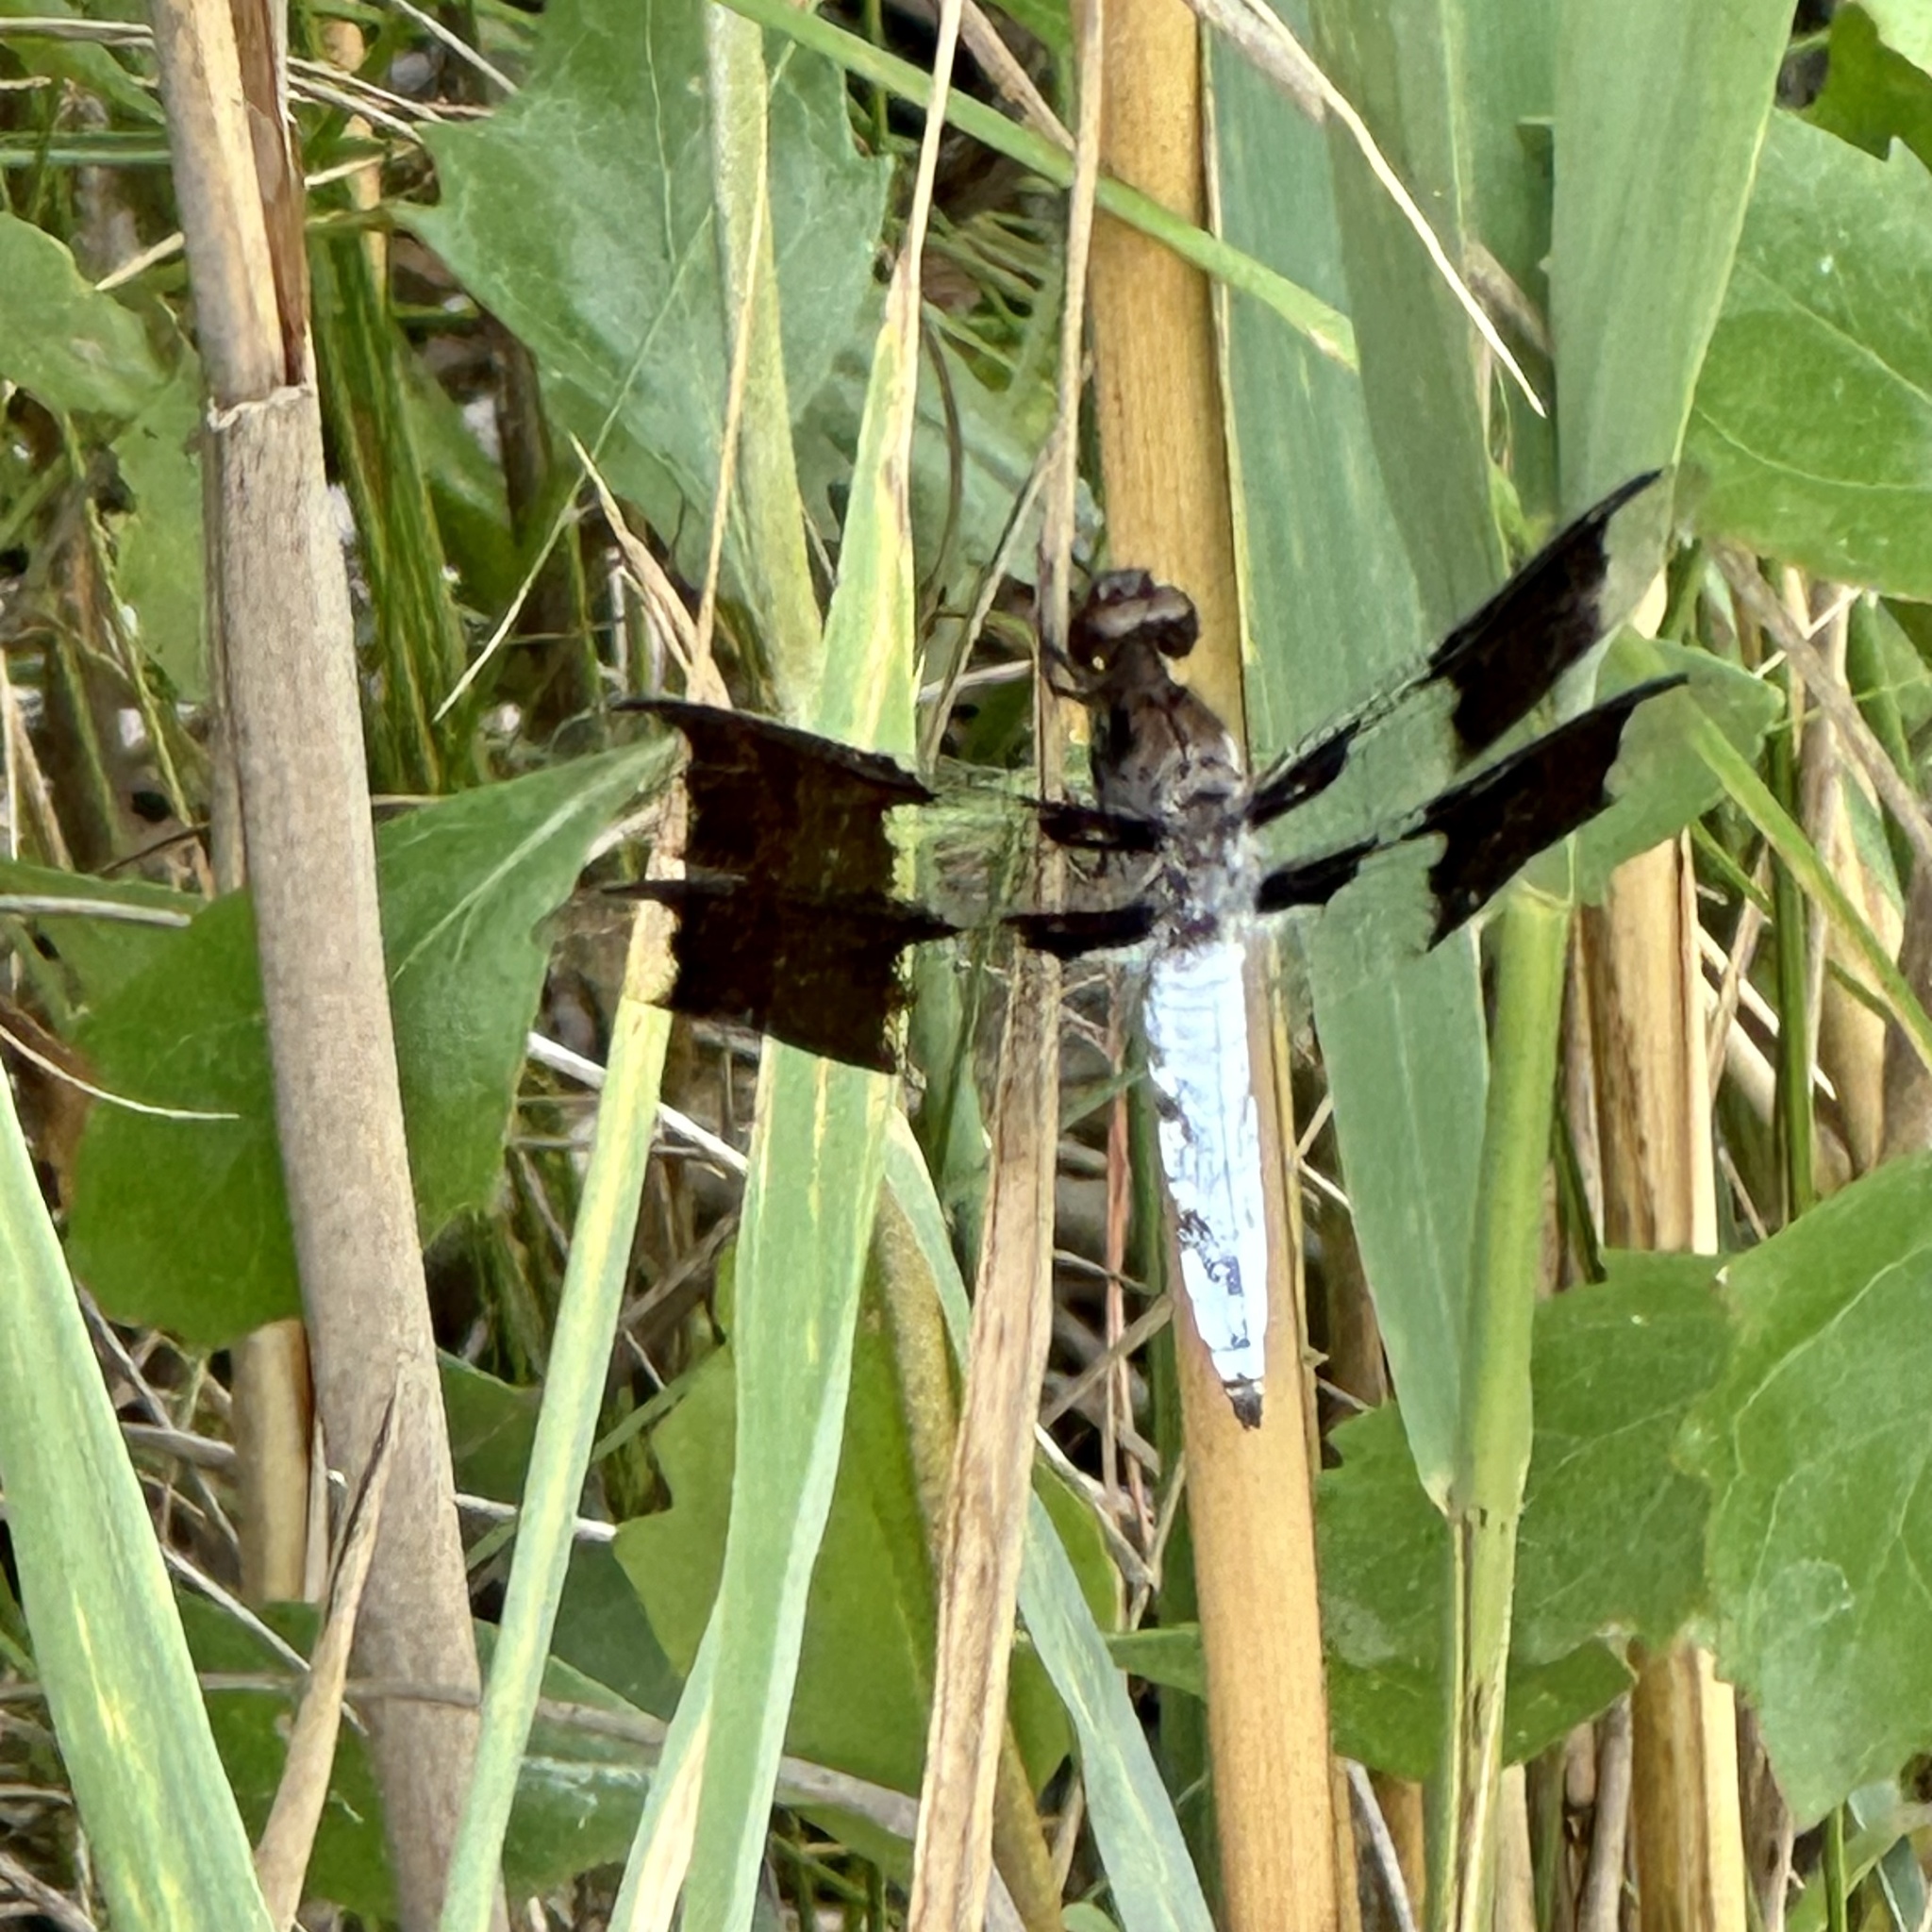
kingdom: Animalia
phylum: Arthropoda
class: Insecta
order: Odonata
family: Libellulidae
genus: Plathemis
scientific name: Plathemis lydia
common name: Common whitetail
